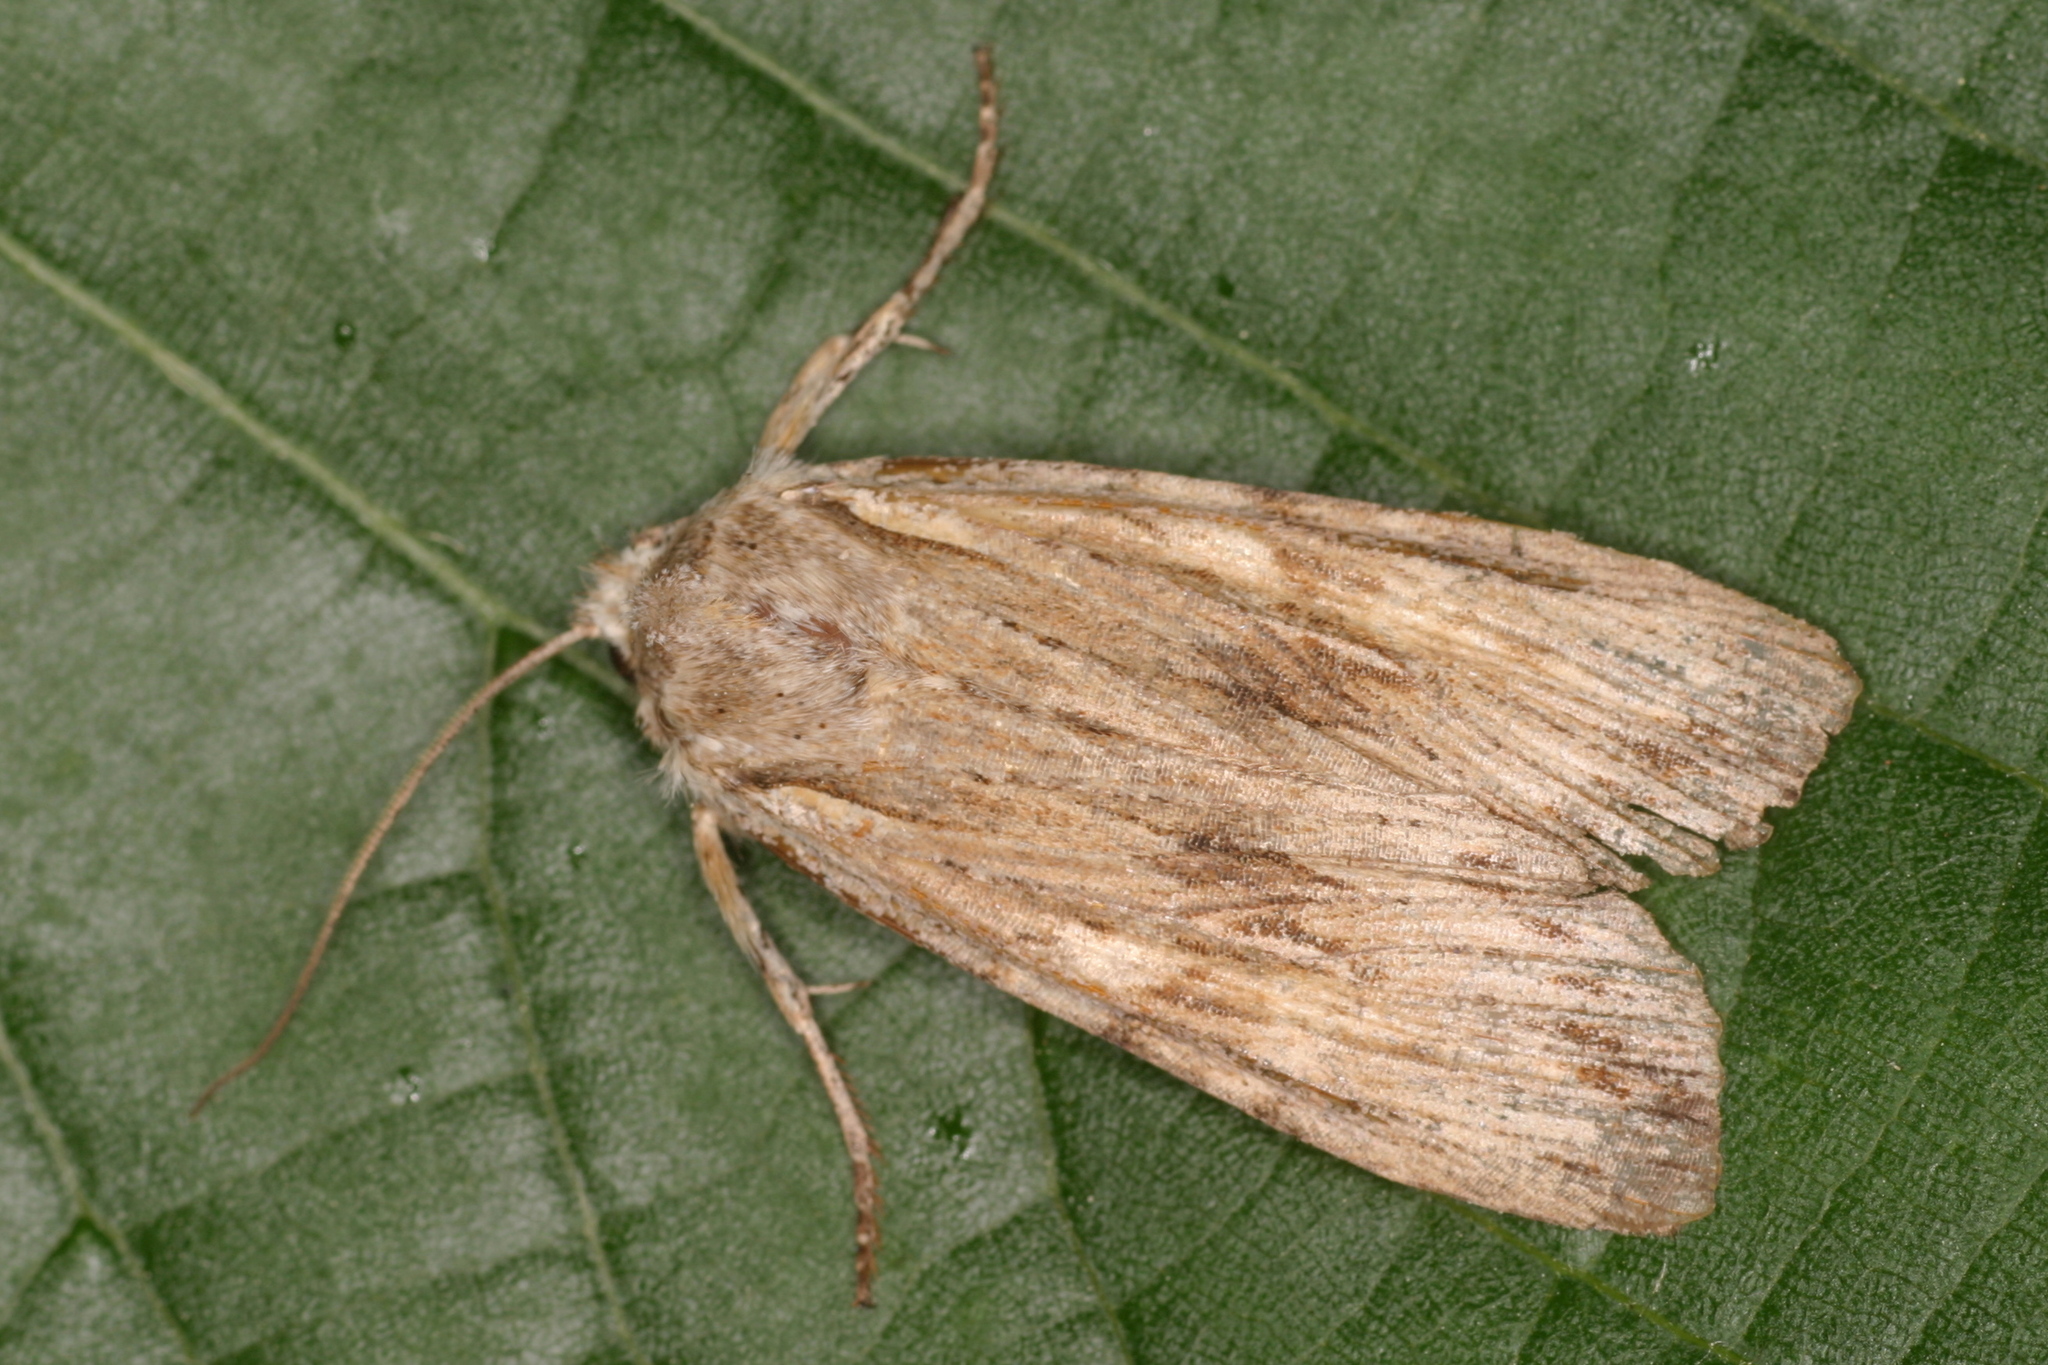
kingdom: Animalia
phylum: Arthropoda
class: Insecta
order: Lepidoptera
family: Noctuidae
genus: Lithophane
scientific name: Lithophane socia
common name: Pale pinion
